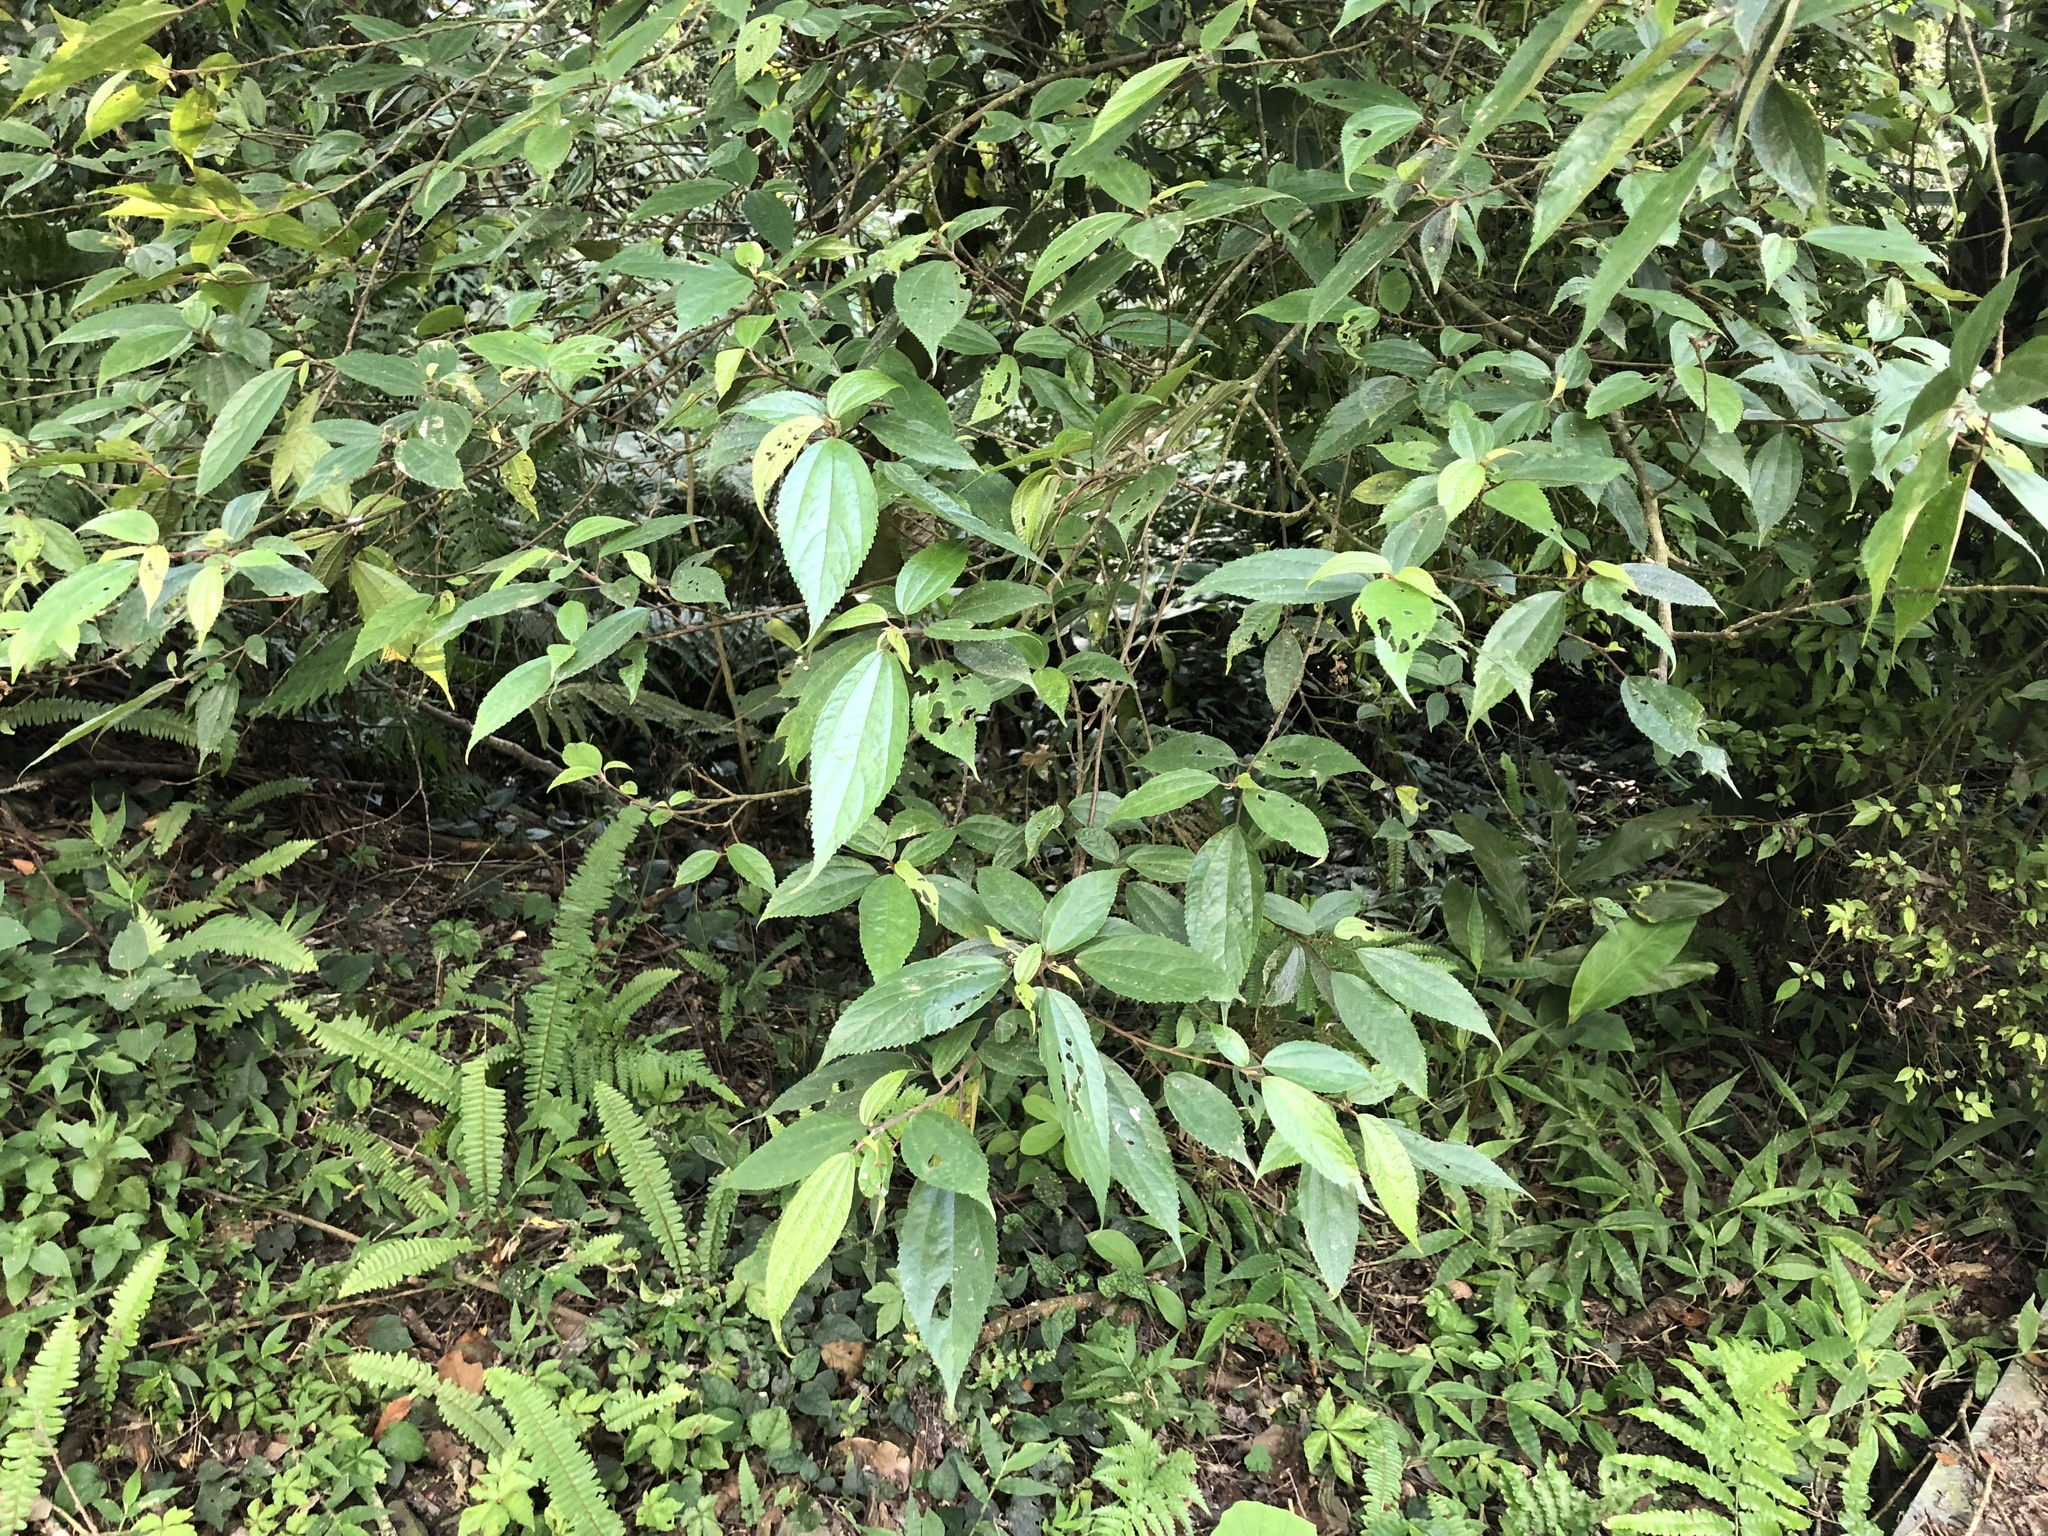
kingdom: Plantae
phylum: Tracheophyta
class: Magnoliopsida
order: Rosales
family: Urticaceae
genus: Oreocnide
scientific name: Oreocnide pedunculata
